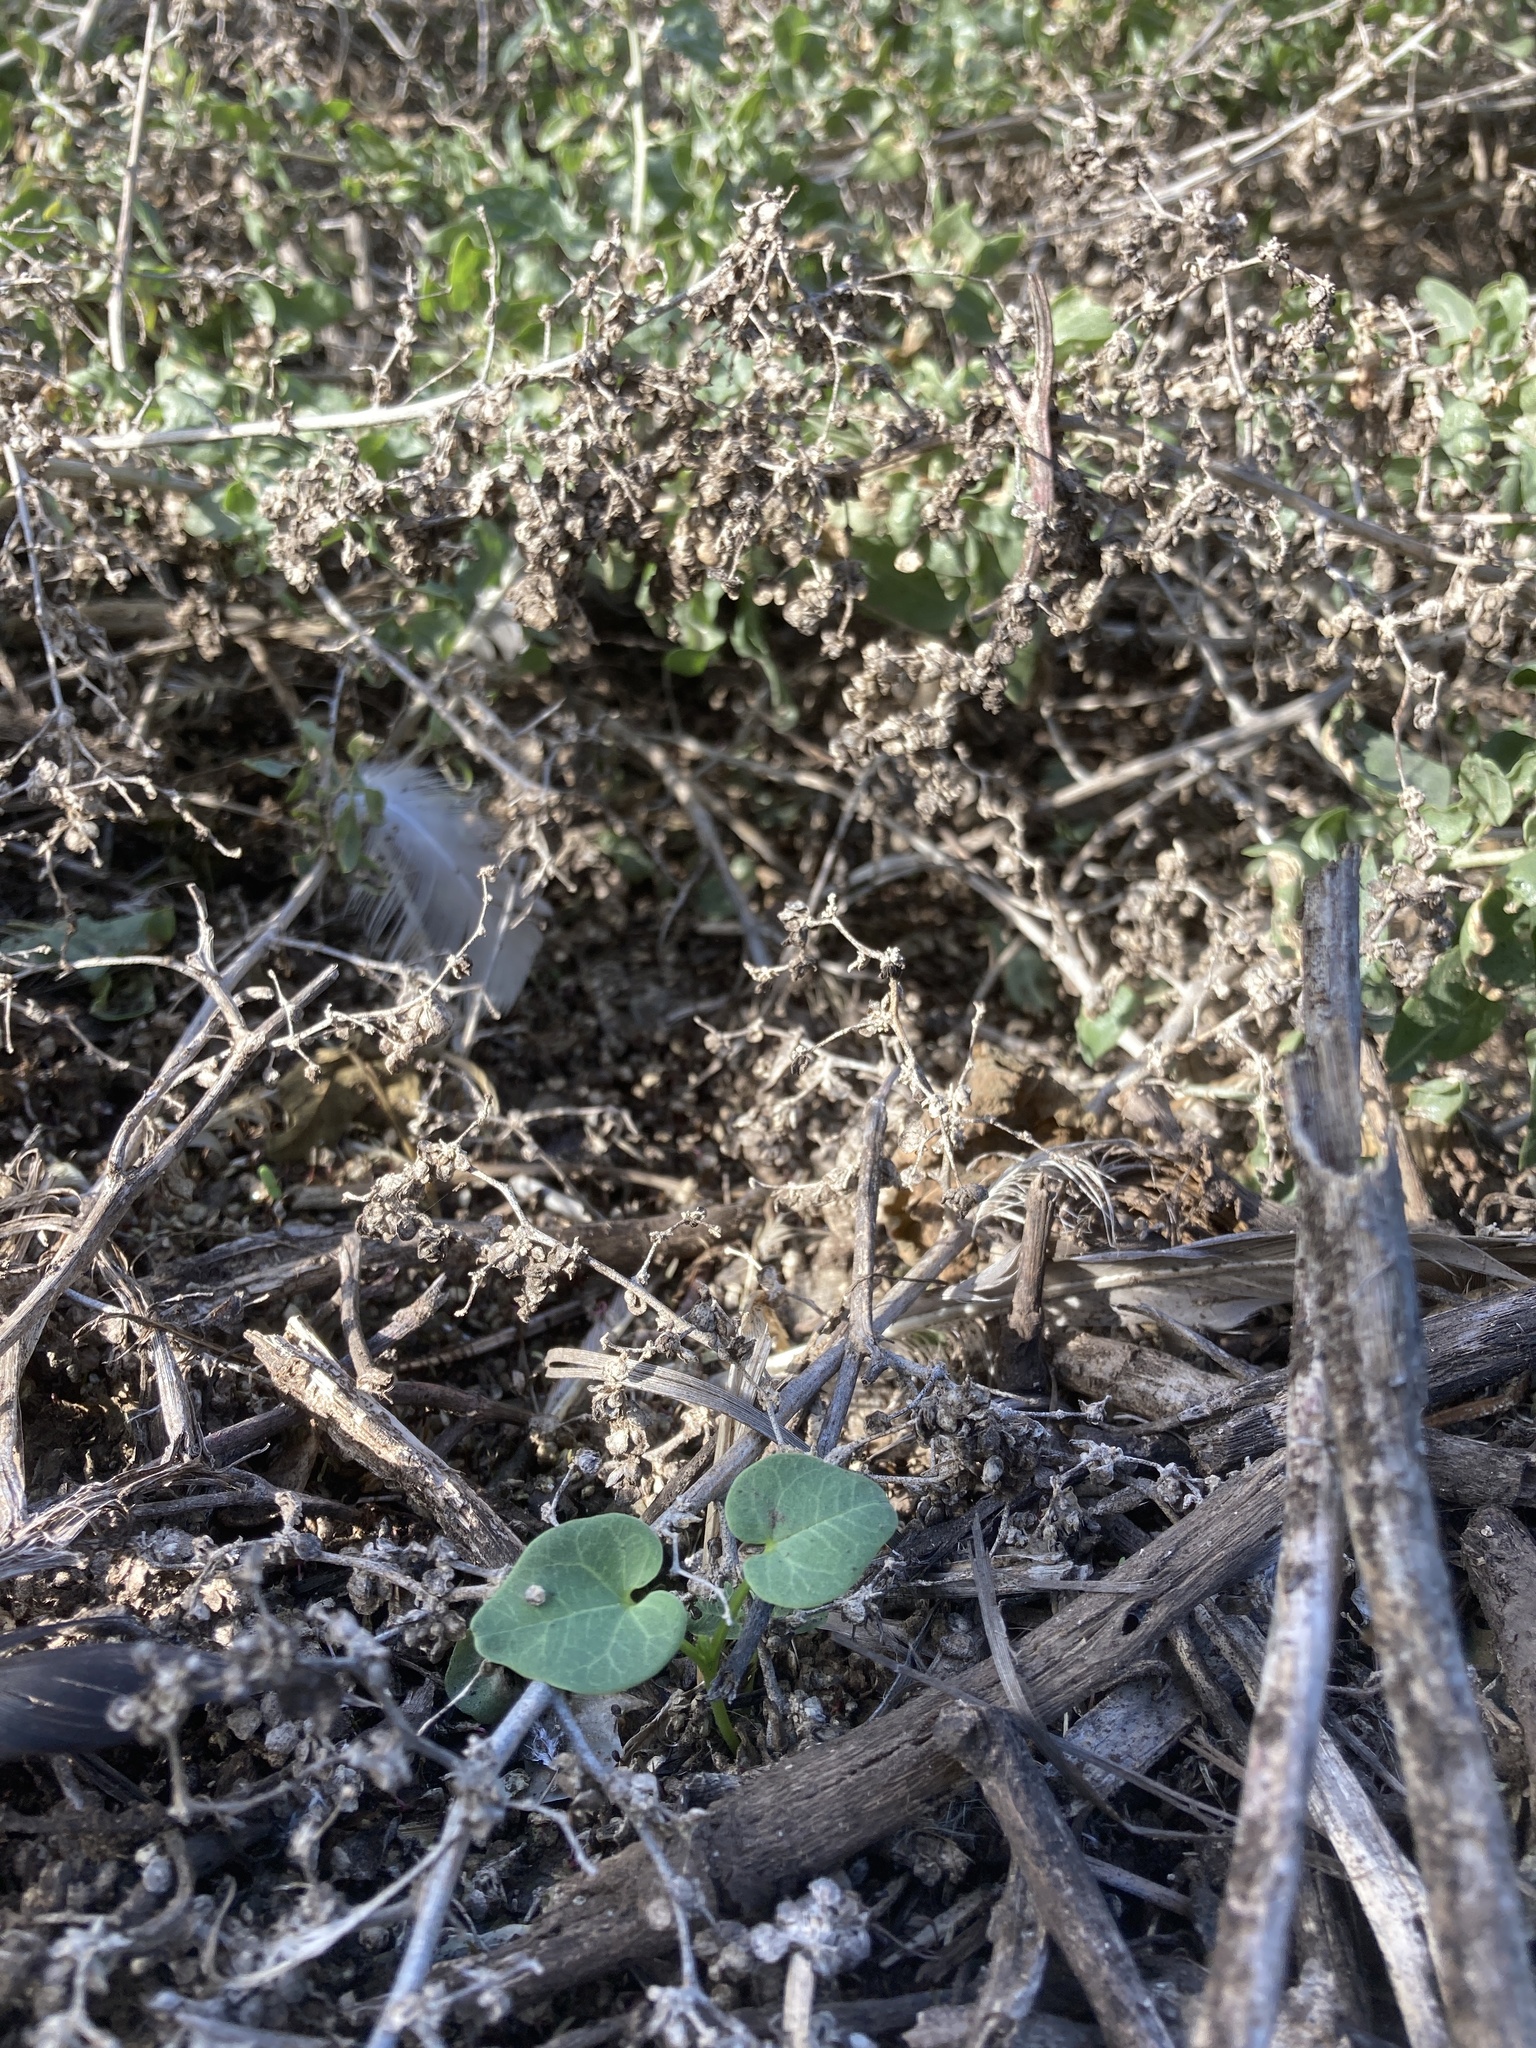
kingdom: Plantae
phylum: Tracheophyta
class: Magnoliopsida
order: Malvales
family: Malvaceae
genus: Malva
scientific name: Malva assurgentiflora
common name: Island mallow
